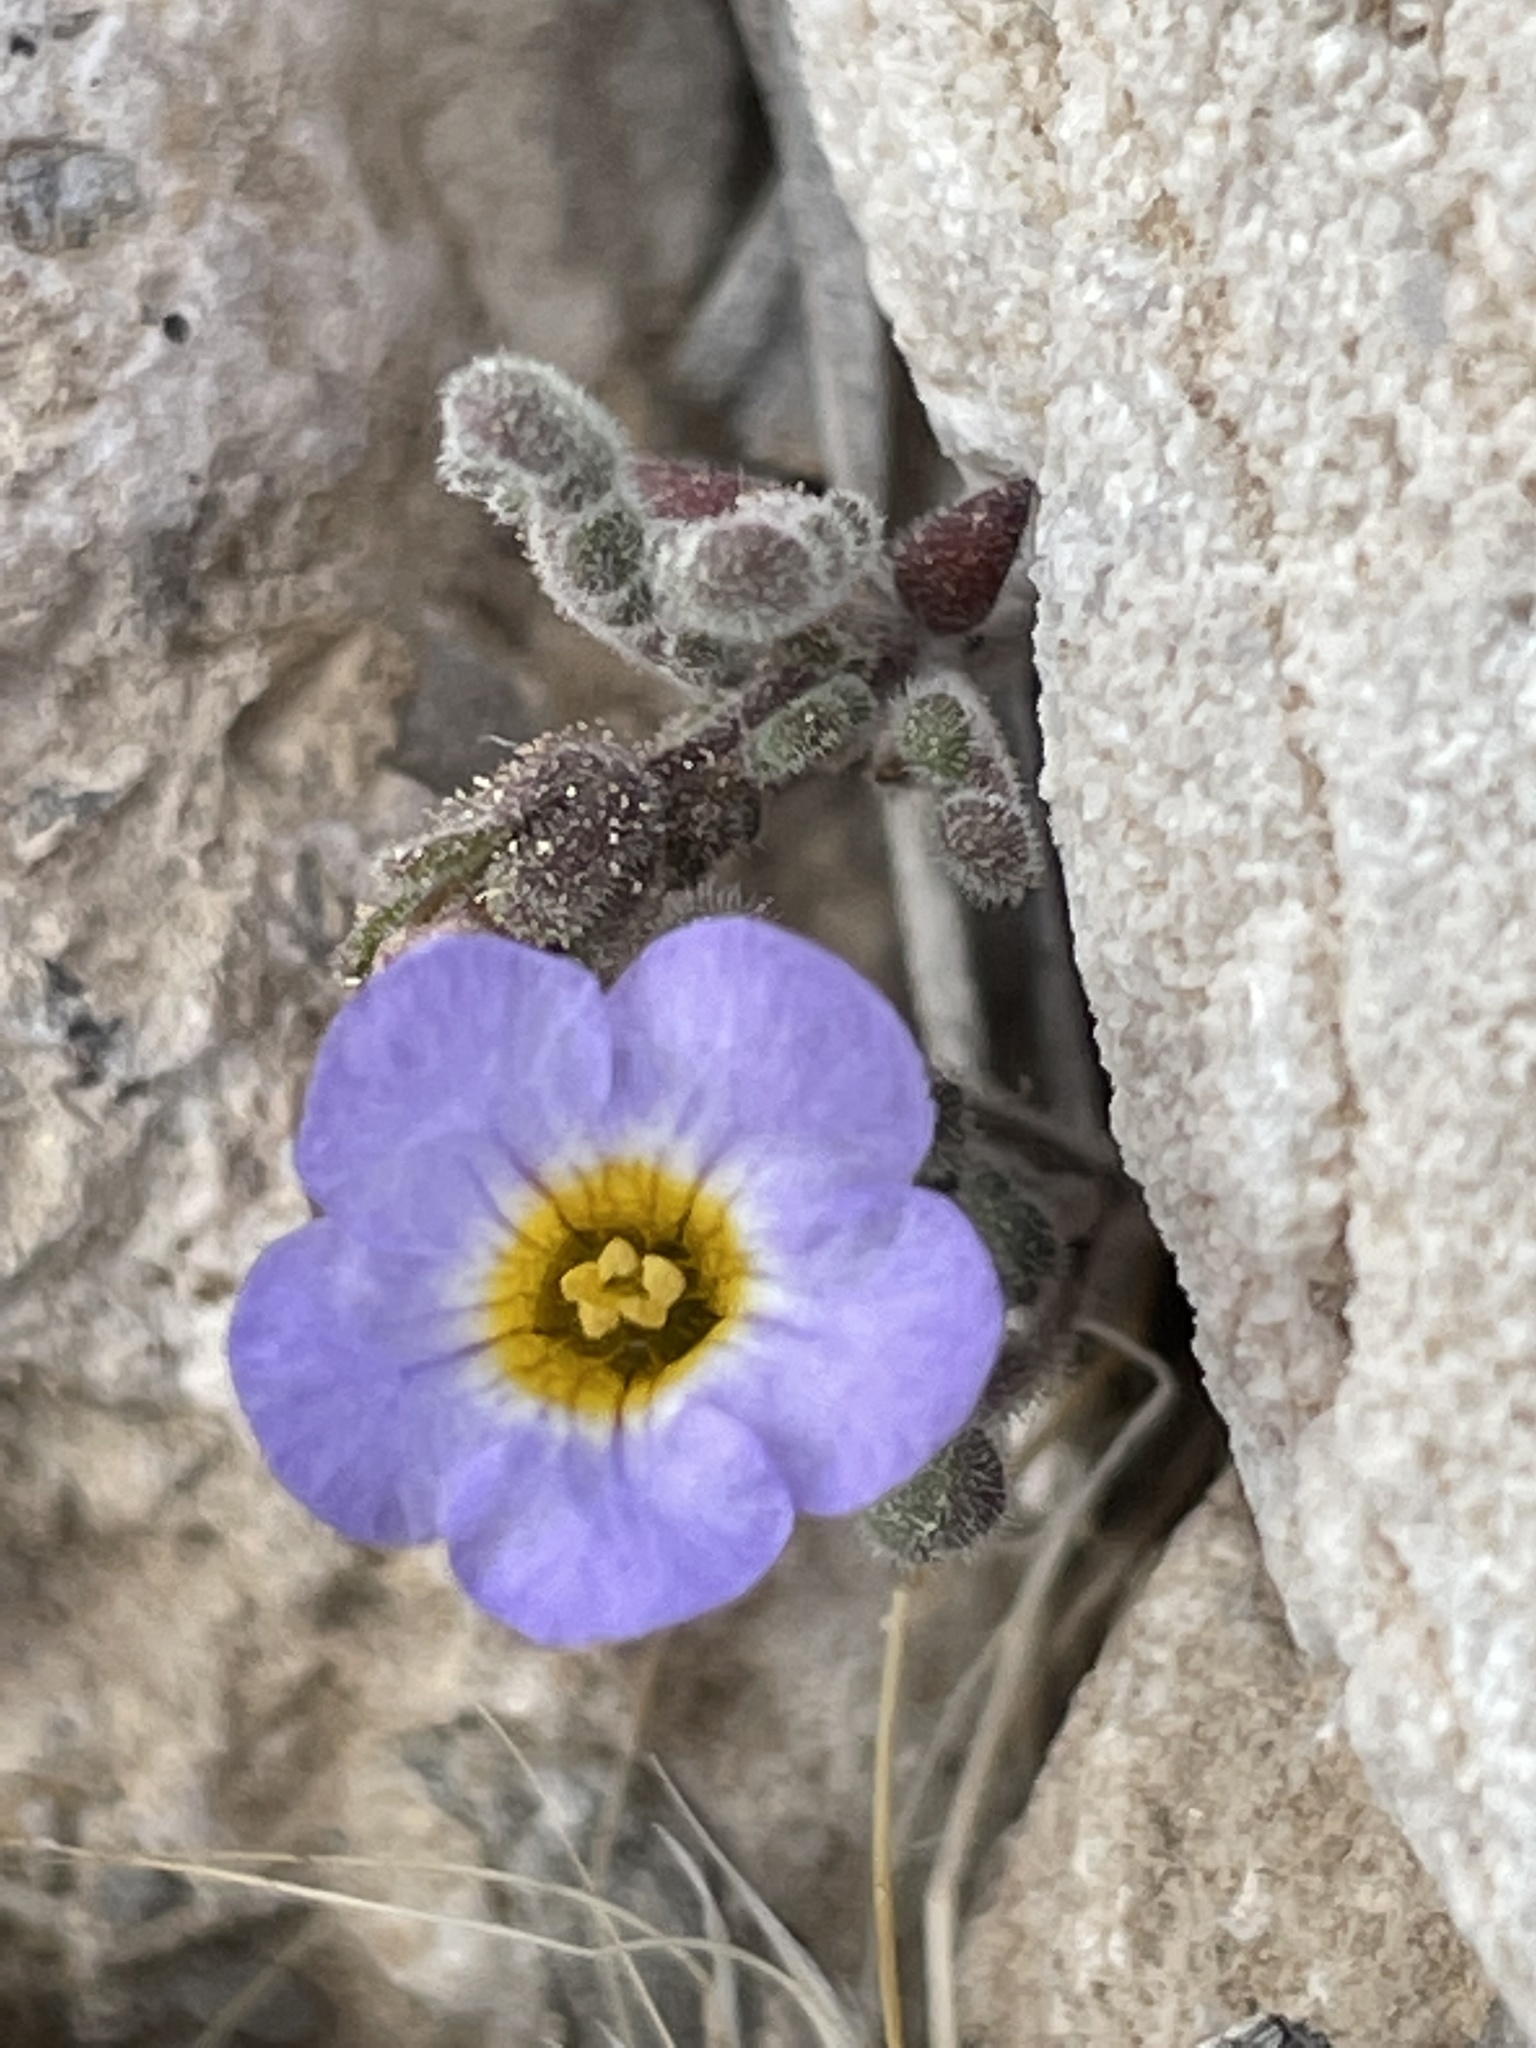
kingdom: Plantae
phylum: Tracheophyta
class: Magnoliopsida
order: Boraginales
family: Hydrophyllaceae
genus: Phacelia
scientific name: Phacelia fremontii
